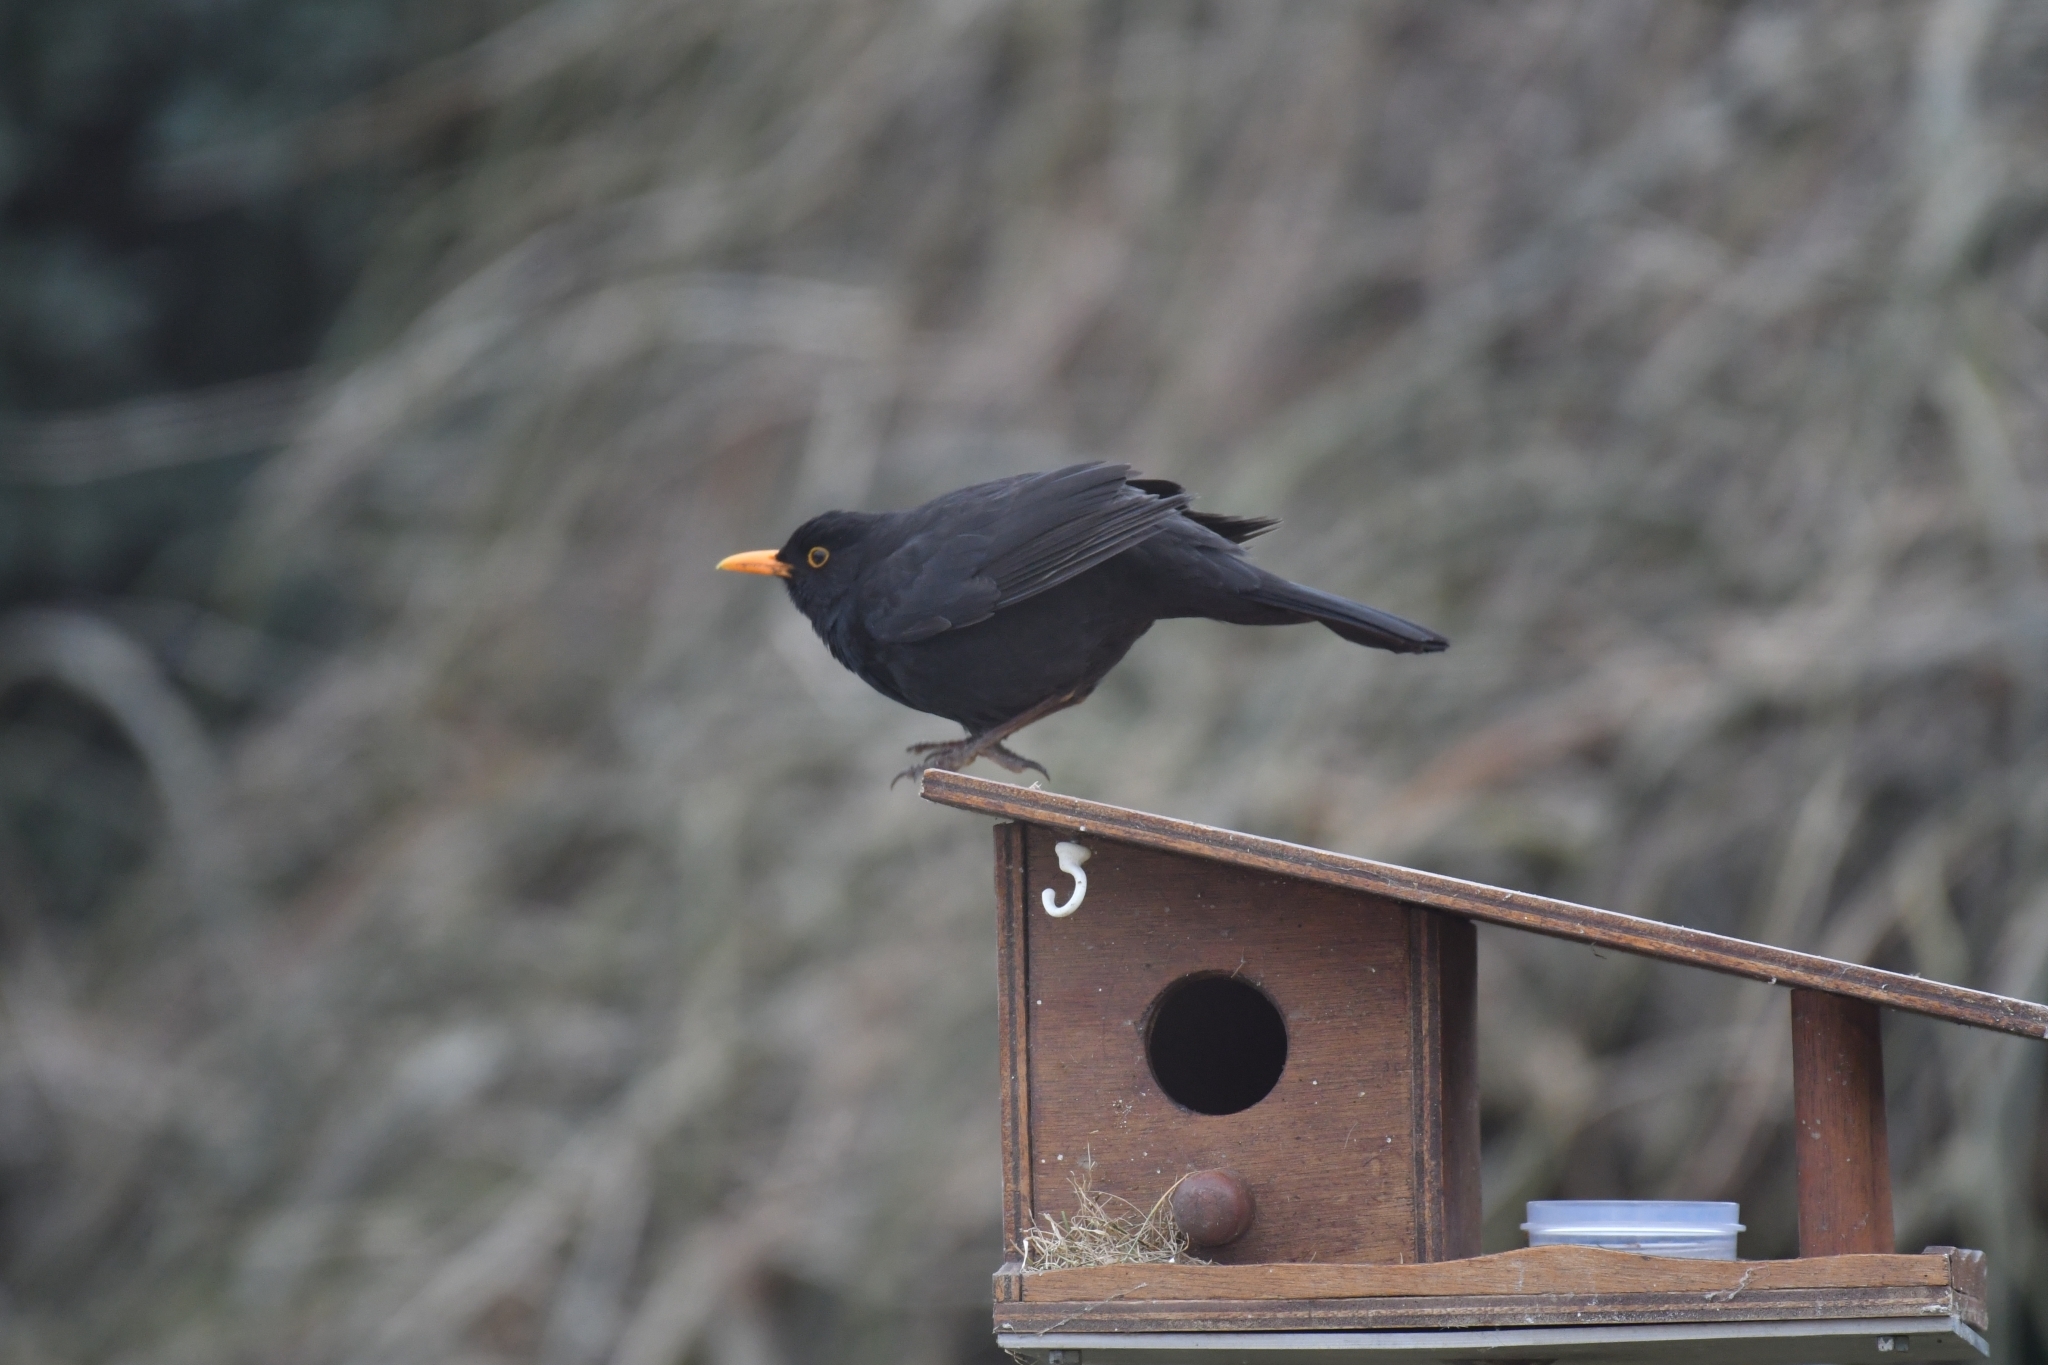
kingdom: Animalia
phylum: Chordata
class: Aves
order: Passeriformes
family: Turdidae
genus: Turdus
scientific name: Turdus merula
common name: Common blackbird
